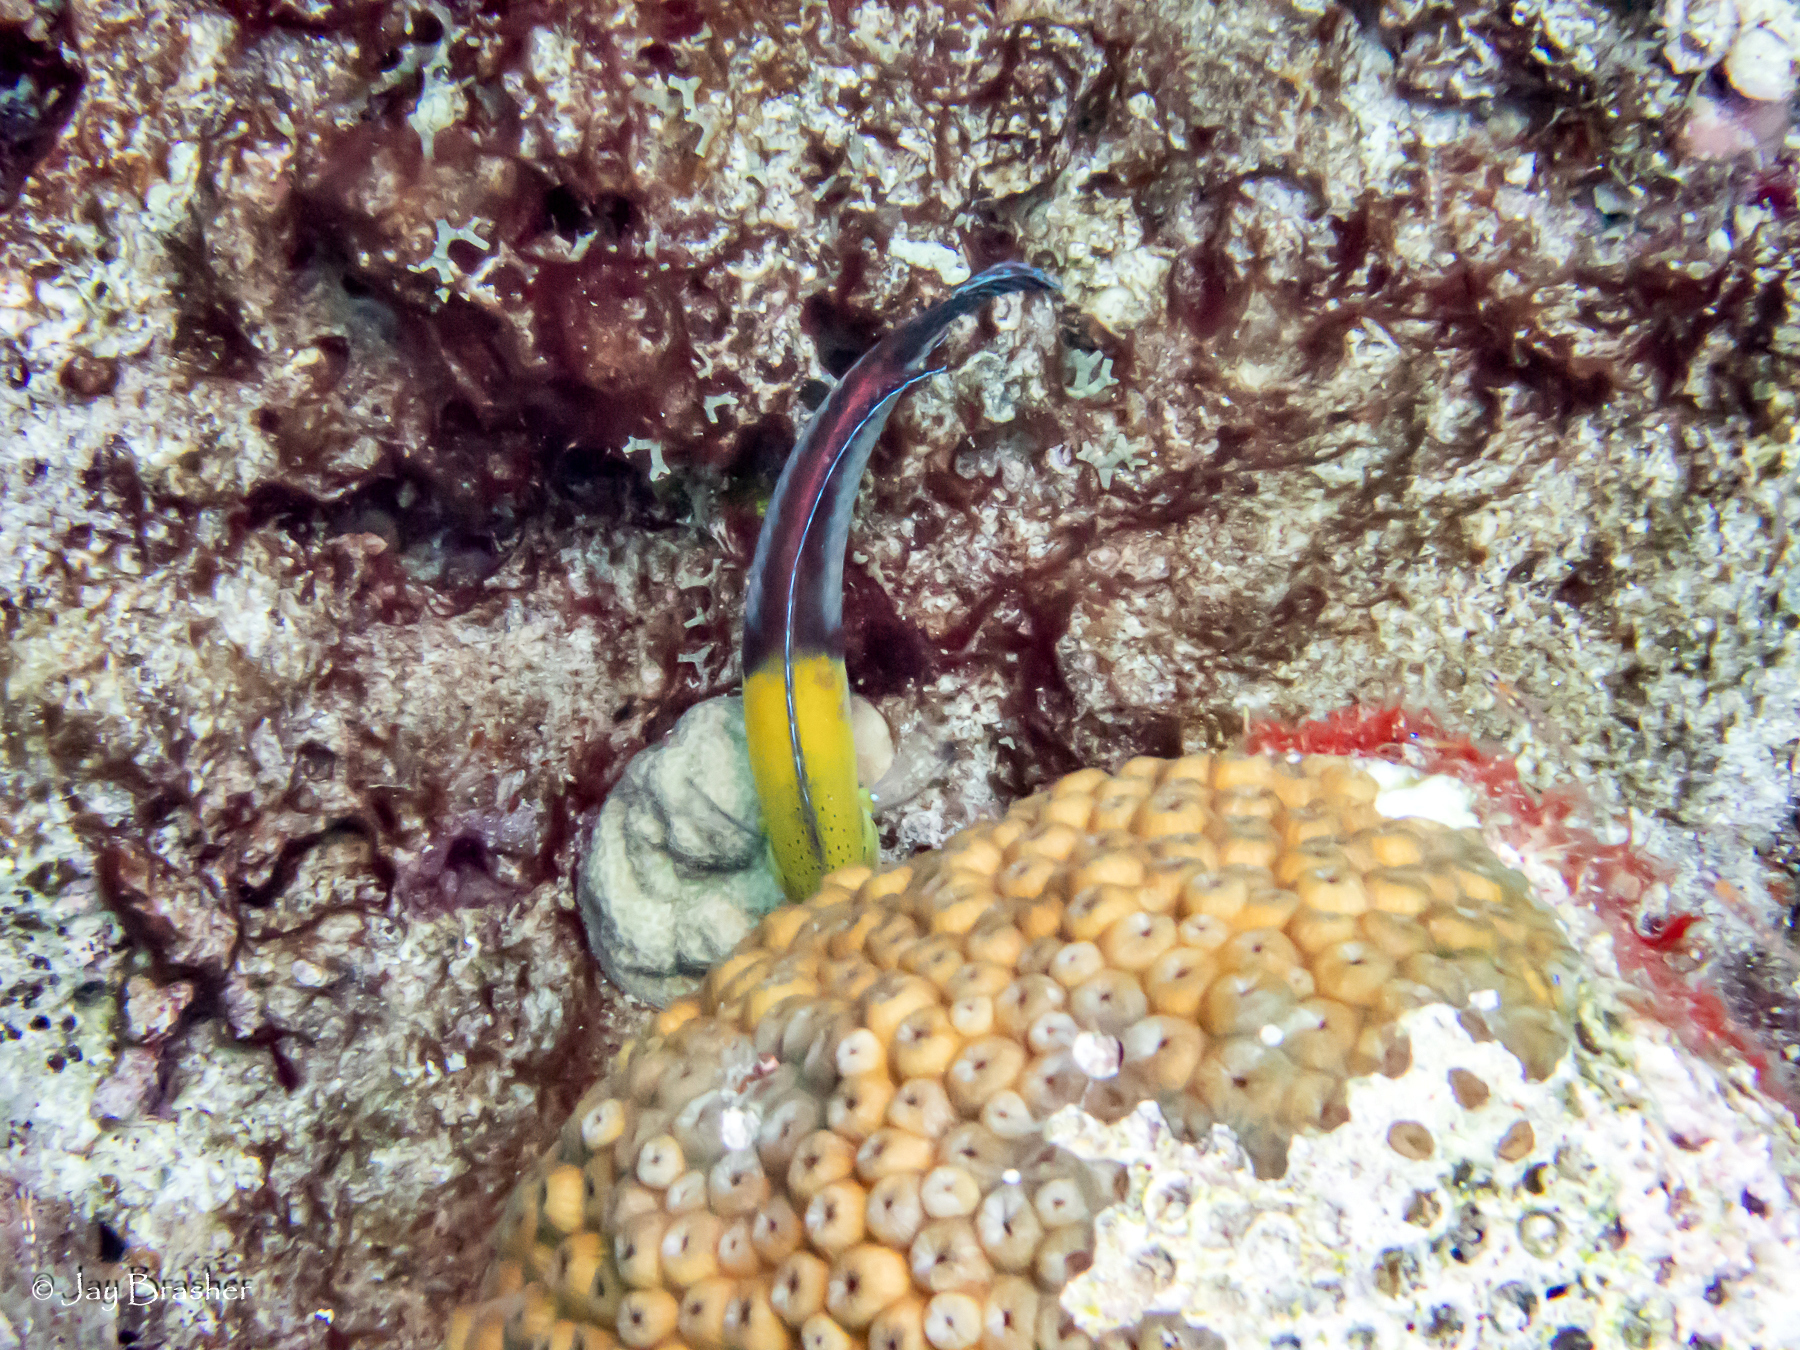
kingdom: Animalia
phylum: Cnidaria
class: Anthozoa
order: Scleractinia
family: Montastraeidae
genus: Montastraea
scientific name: Montastraea cavernosa
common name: Great star coral
